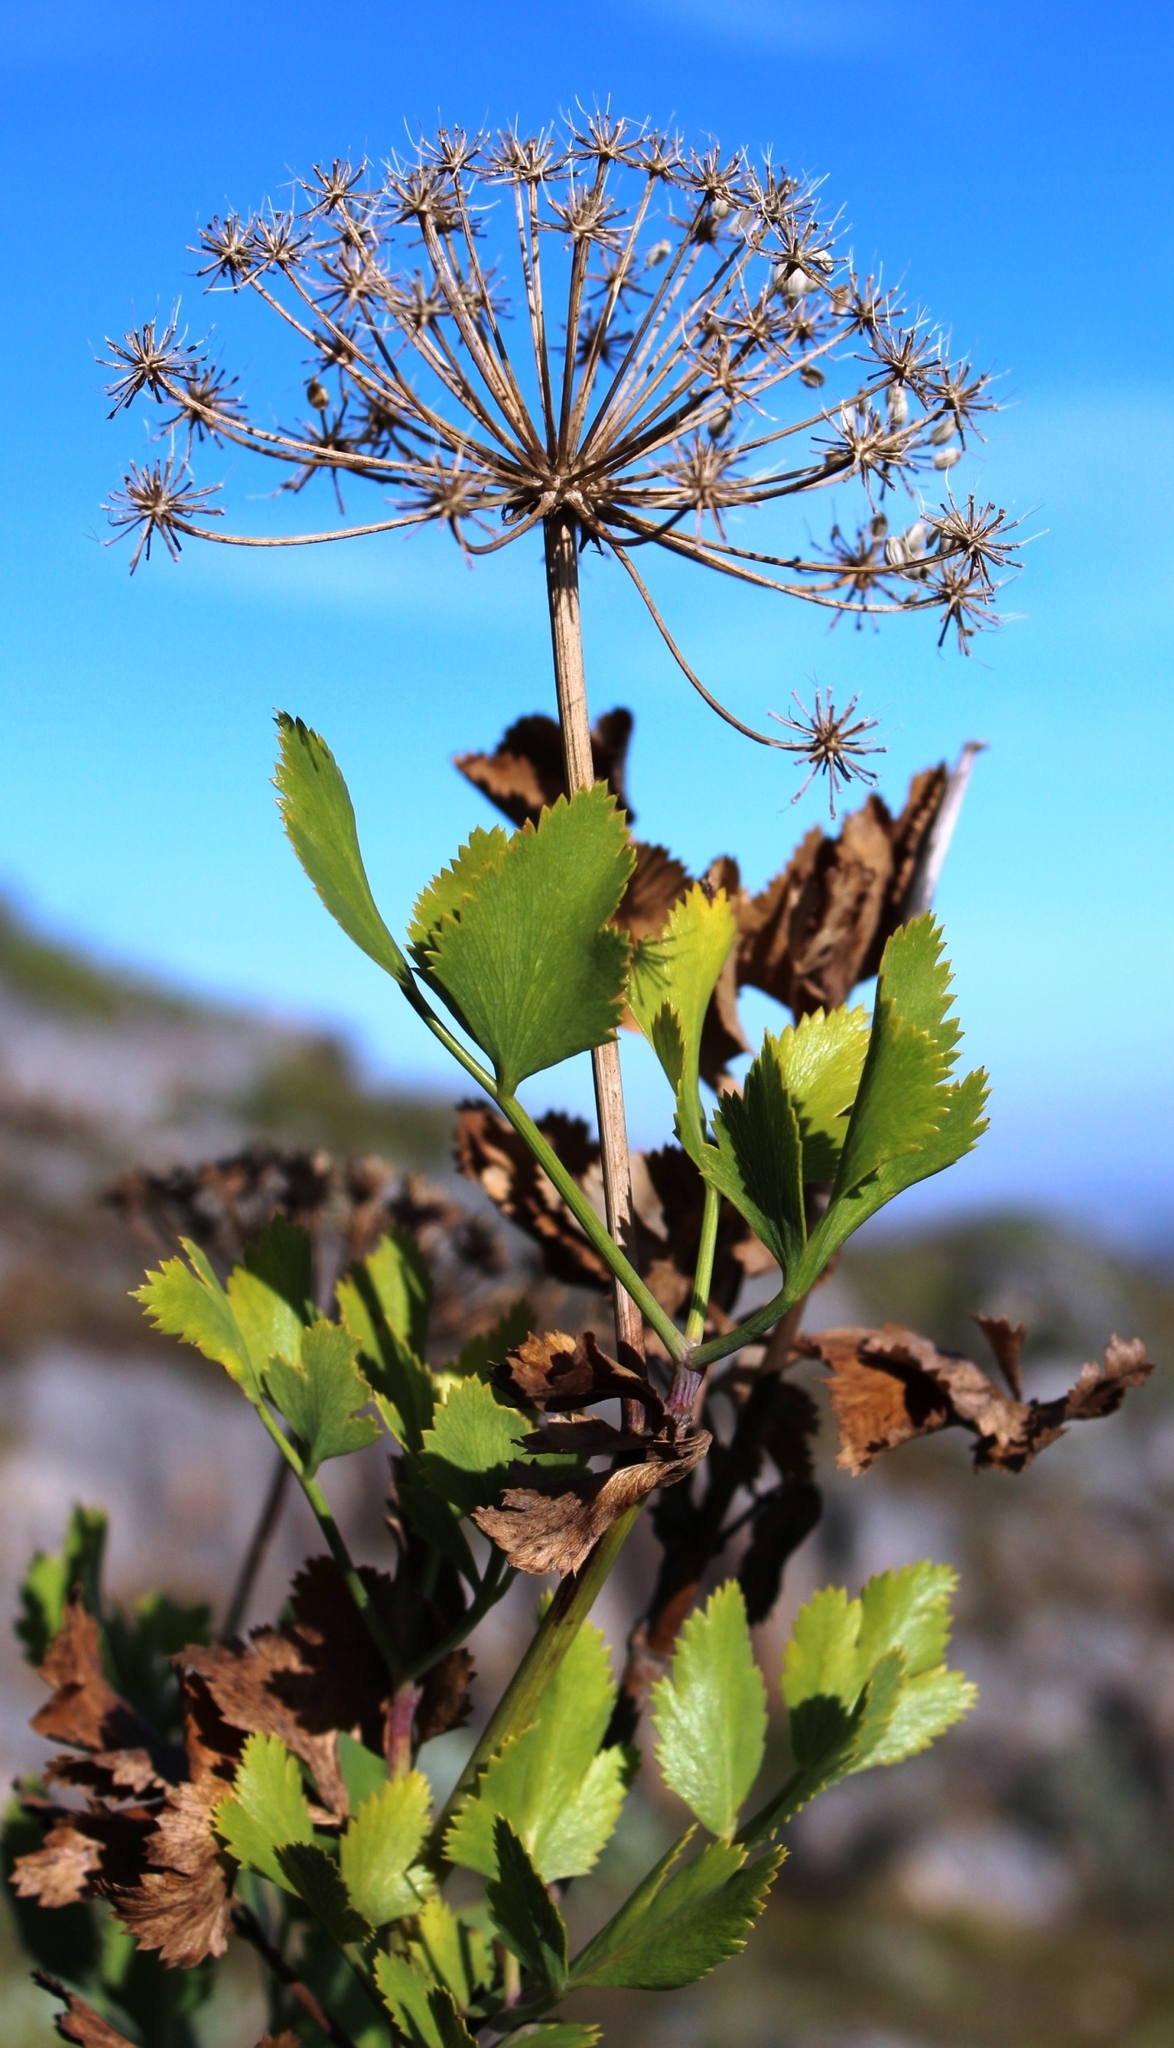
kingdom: Plantae
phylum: Tracheophyta
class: Magnoliopsida
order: Apiales
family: Apiaceae
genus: Notobubon
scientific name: Notobubon galbanum
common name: Blisterbush
